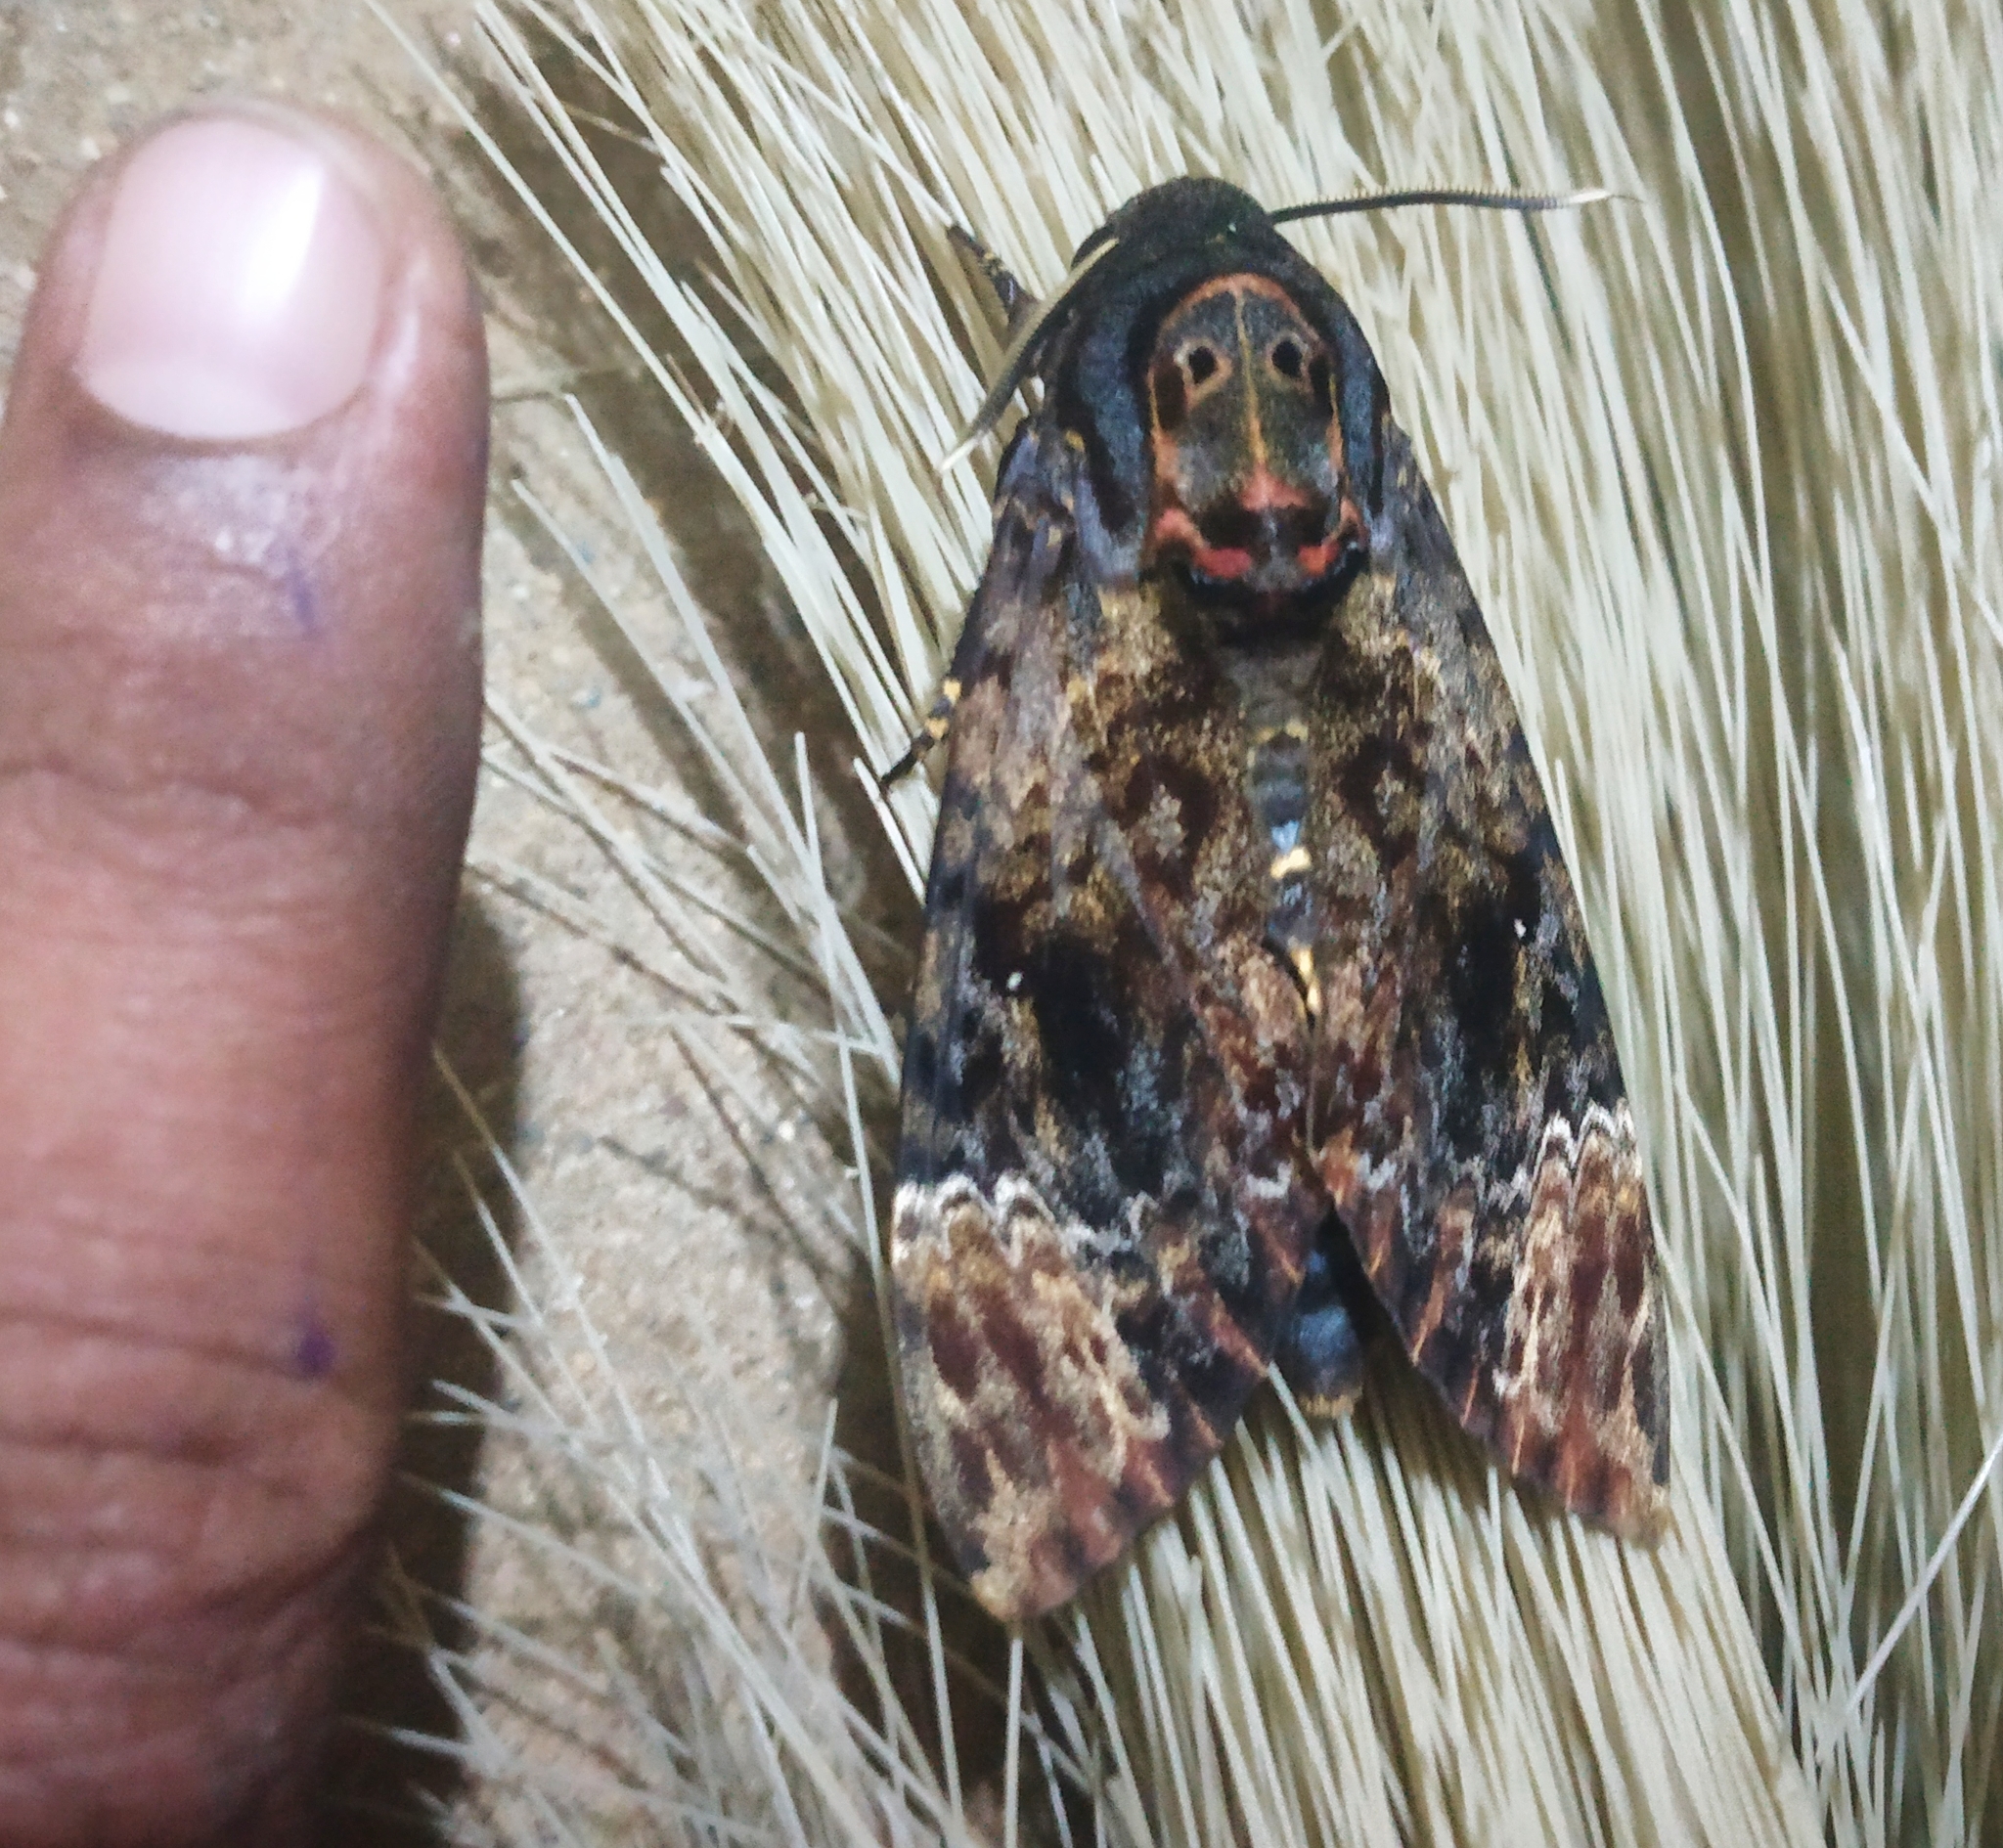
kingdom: Animalia
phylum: Arthropoda
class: Insecta
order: Lepidoptera
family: Sphingidae
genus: Acherontia
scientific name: Acherontia lachesis
